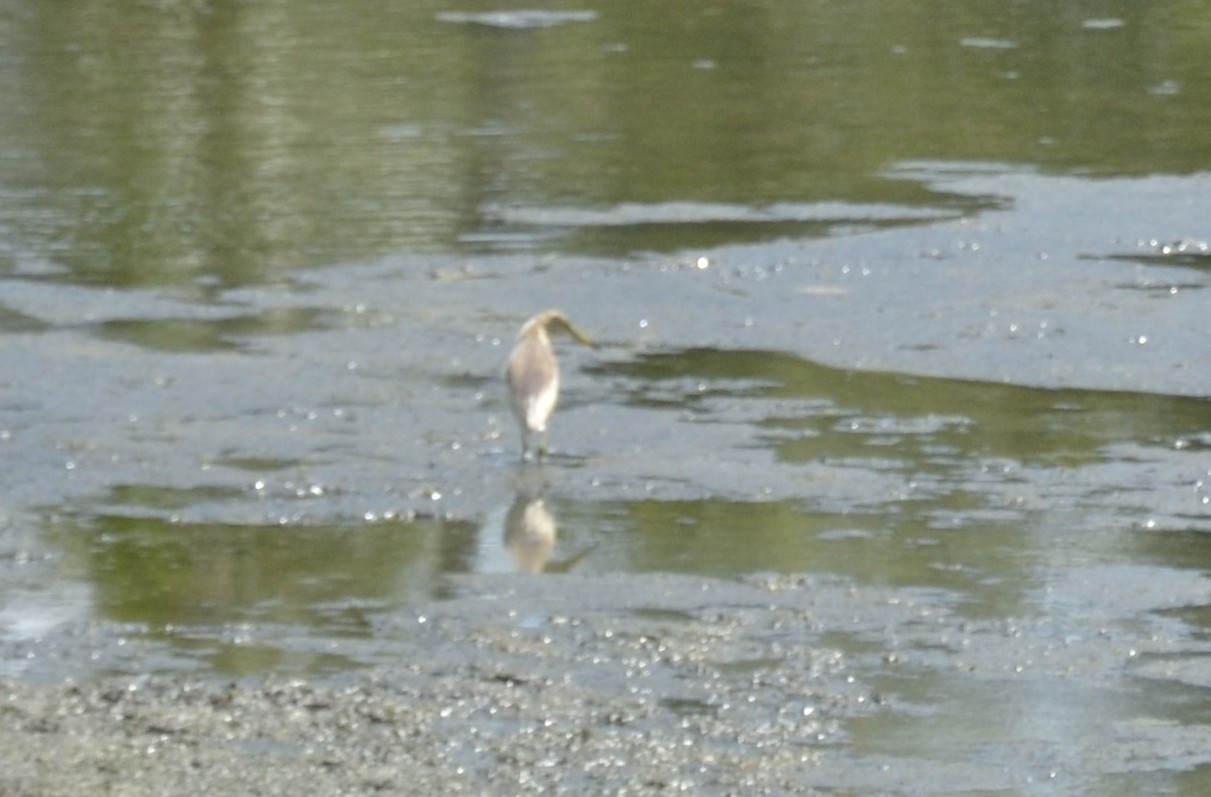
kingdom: Animalia
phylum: Chordata
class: Aves
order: Pelecaniformes
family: Ardeidae
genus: Ardeola
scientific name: Ardeola grayii
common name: Indian pond heron
